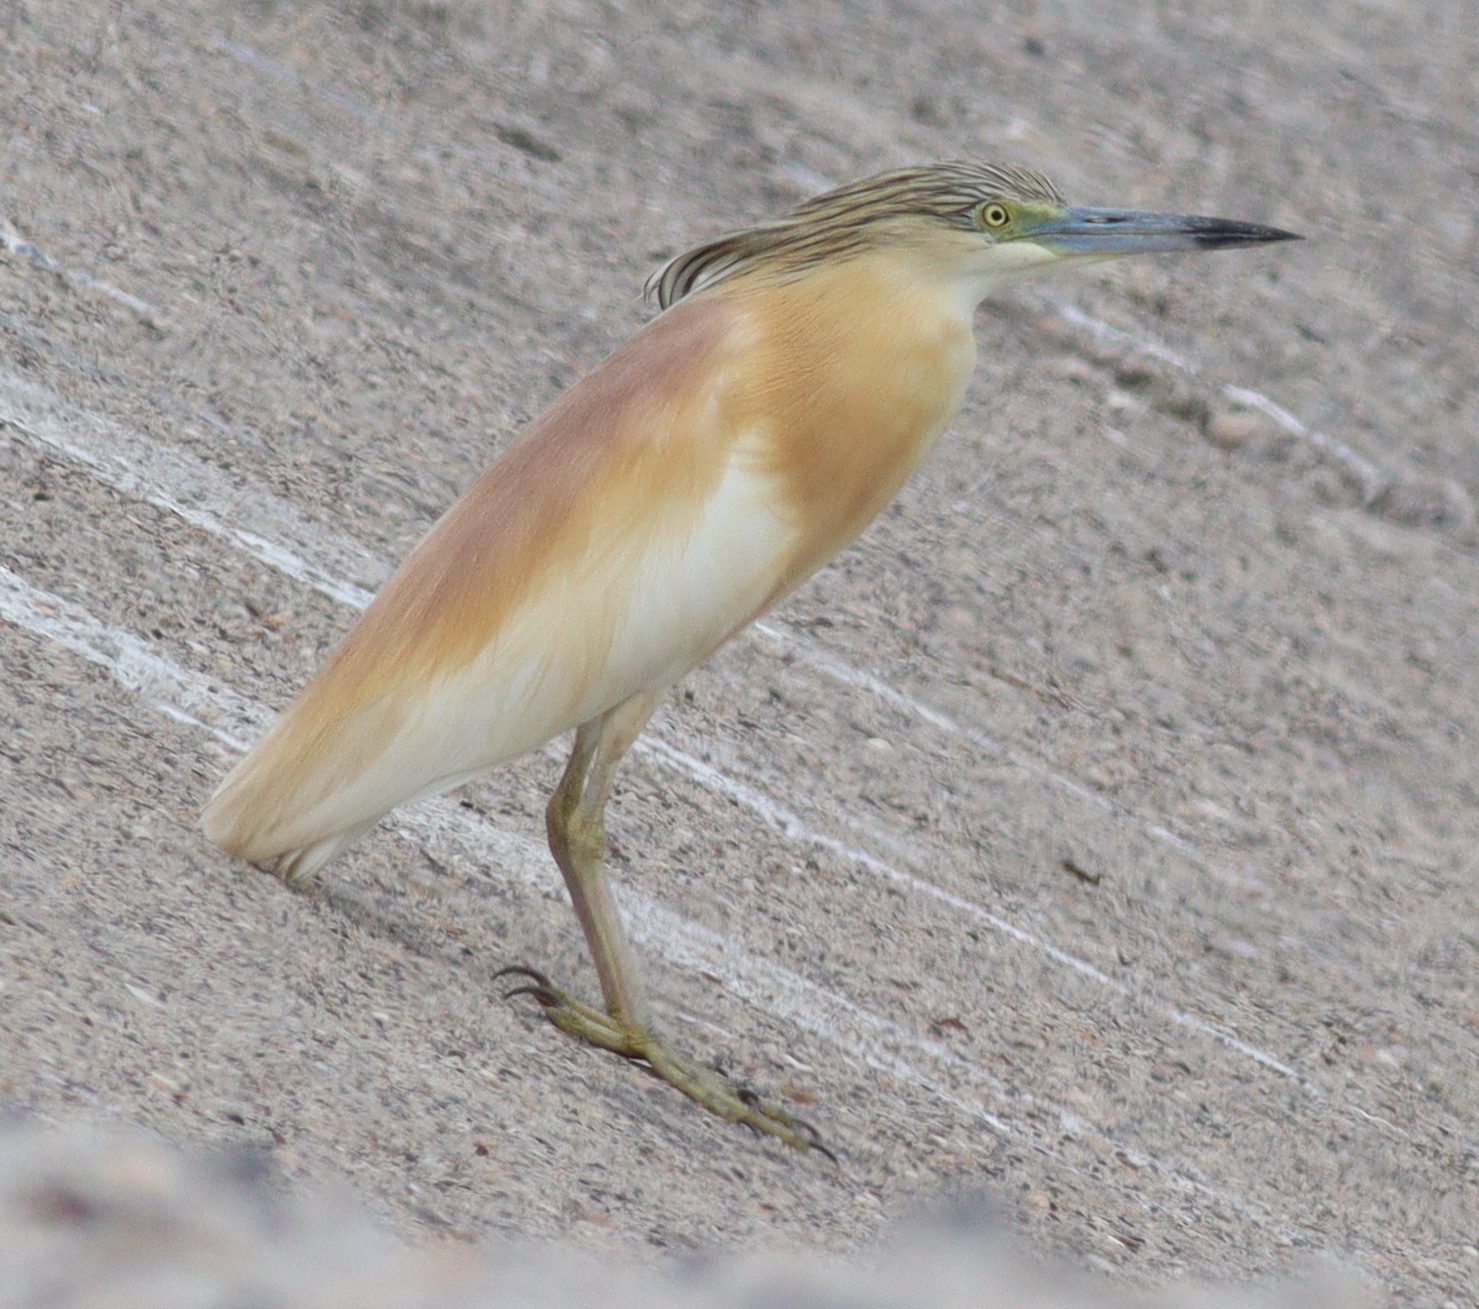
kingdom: Animalia
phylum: Chordata
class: Aves
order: Pelecaniformes
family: Ardeidae
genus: Ardeola
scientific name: Ardeola ralloides
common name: Squacco heron
